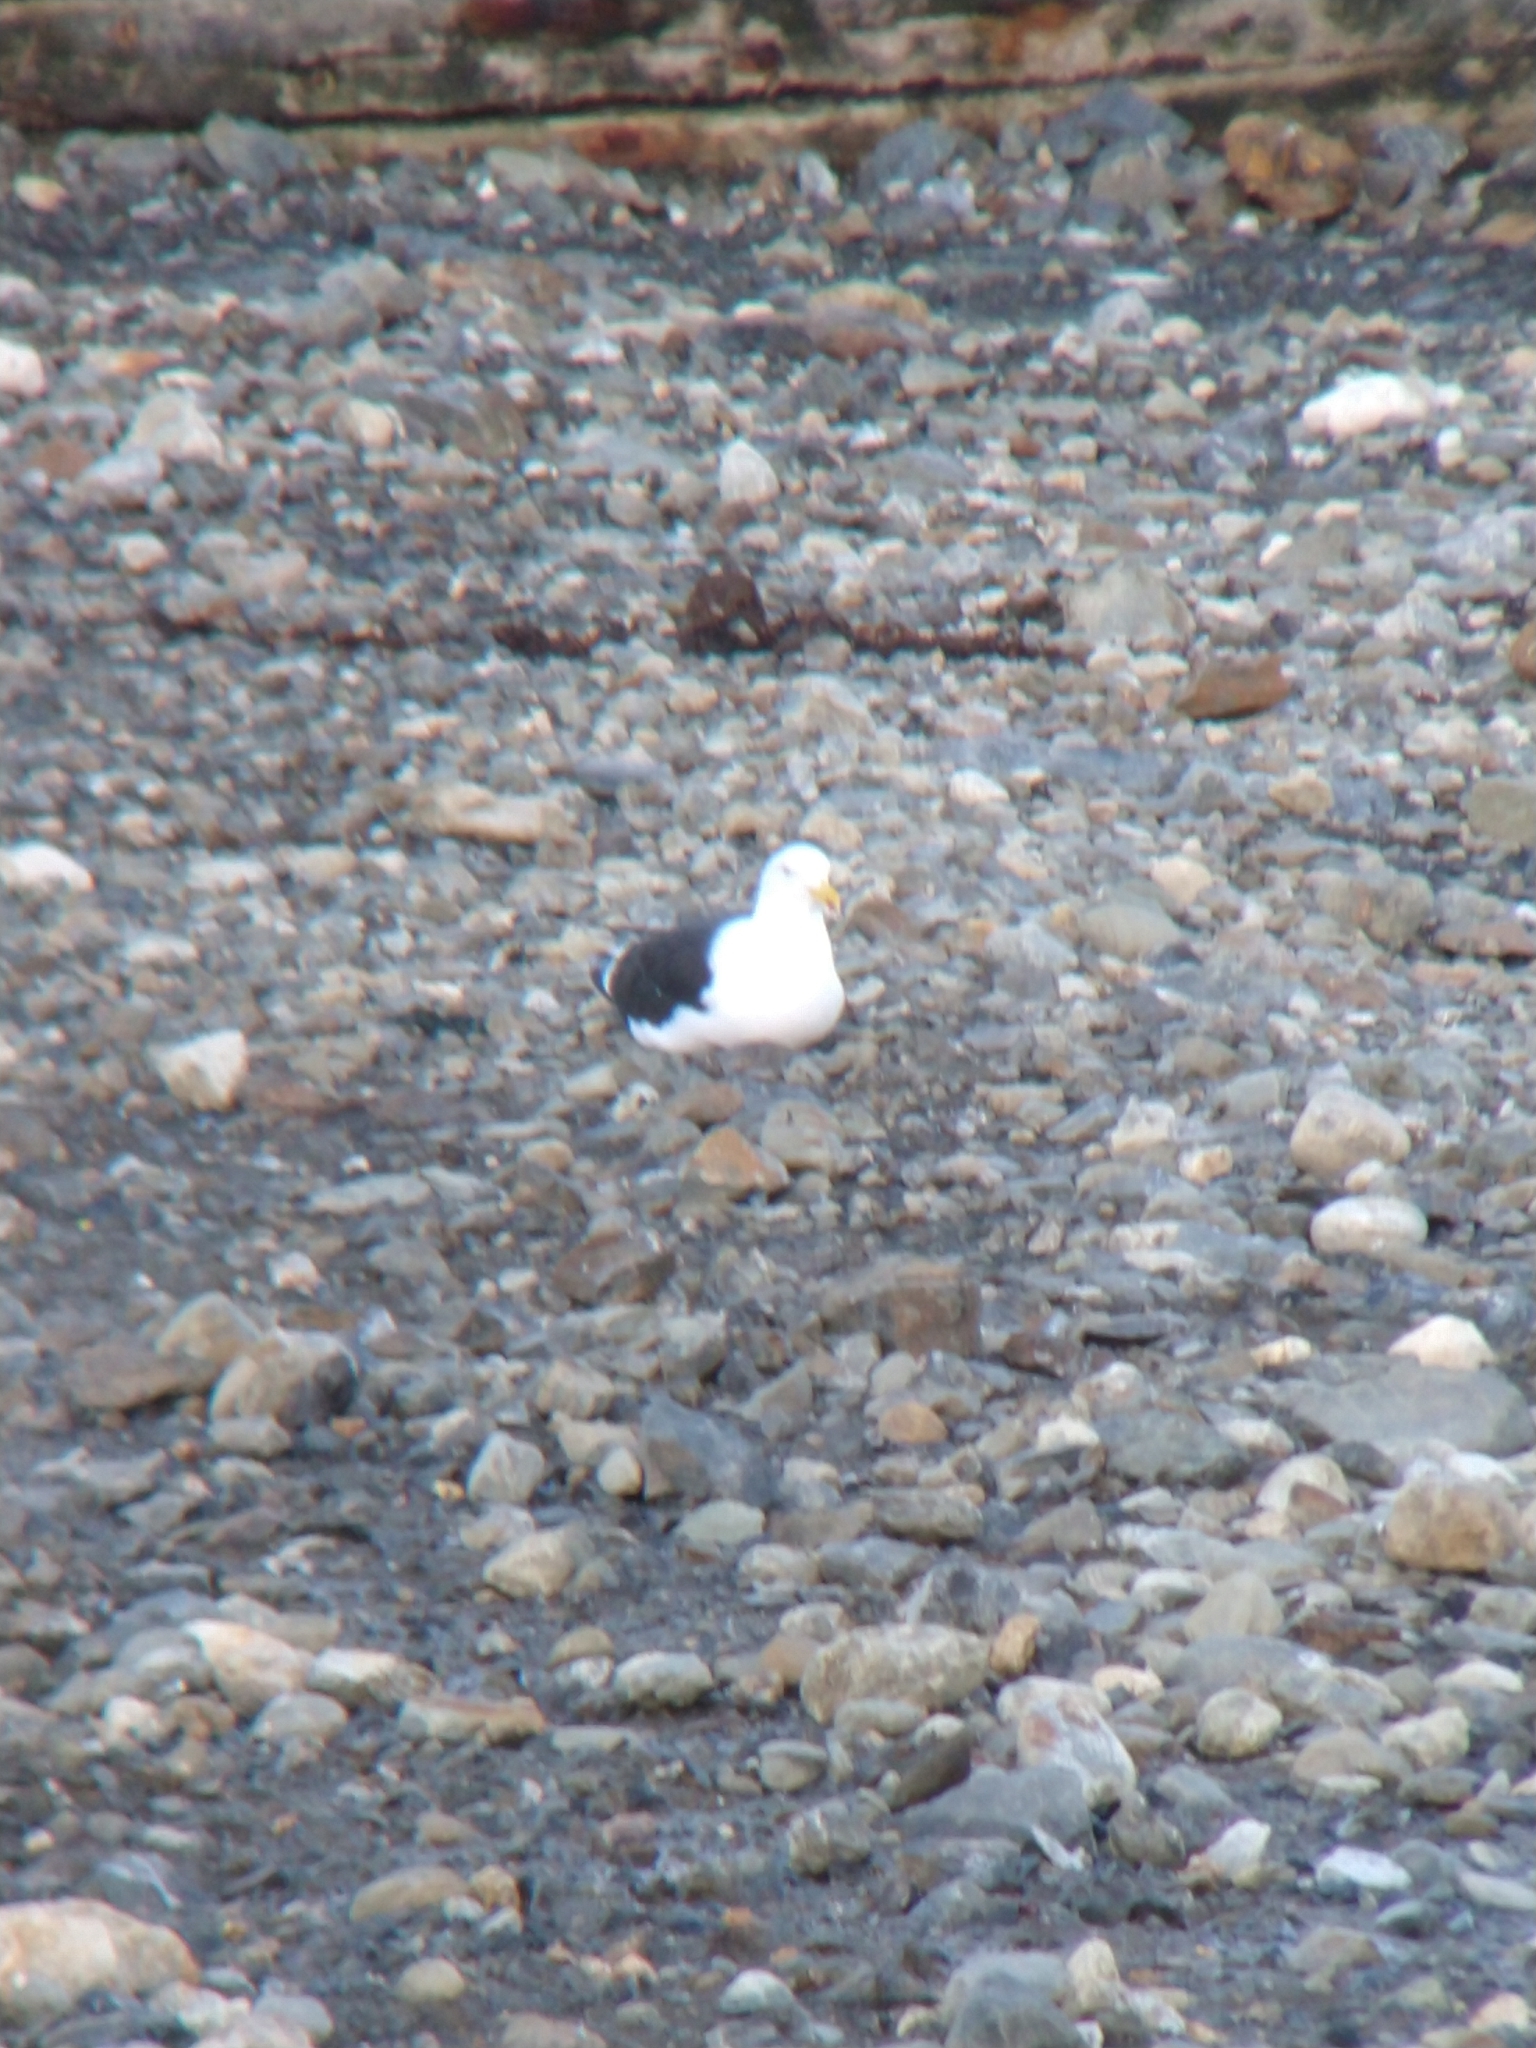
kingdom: Animalia
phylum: Chordata
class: Aves
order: Charadriiformes
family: Laridae
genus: Larus
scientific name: Larus dominicanus
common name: Kelp gull
